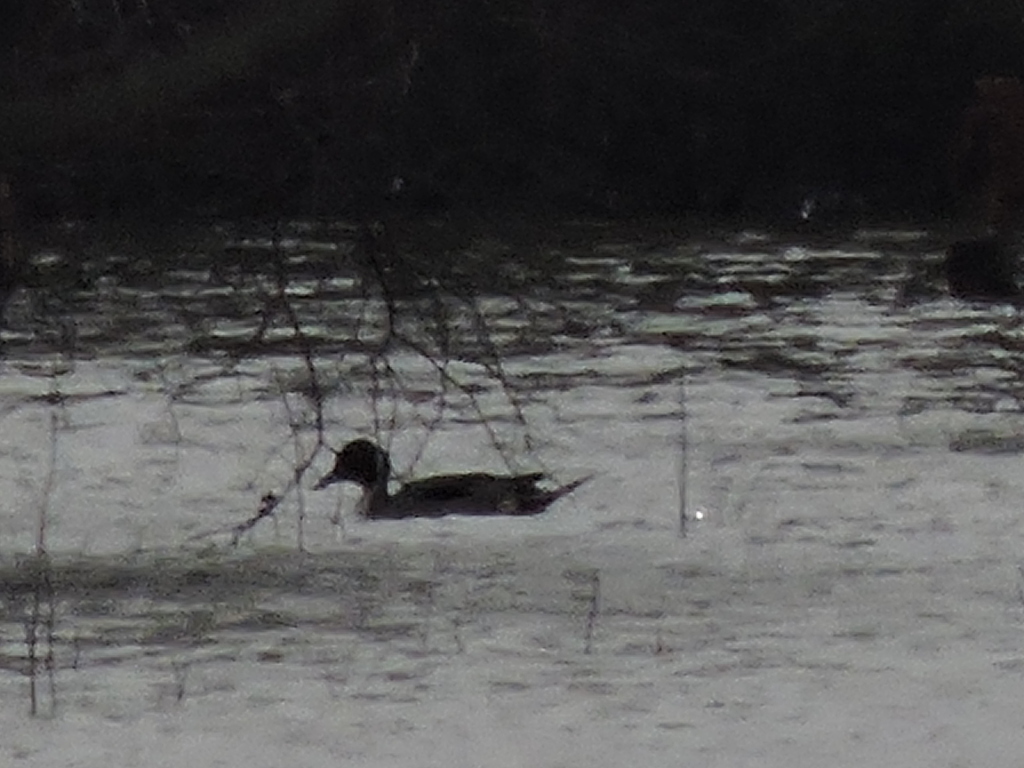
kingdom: Animalia
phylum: Chordata
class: Aves
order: Anseriformes
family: Anatidae
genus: Anas
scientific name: Anas acuta
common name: Northern pintail
